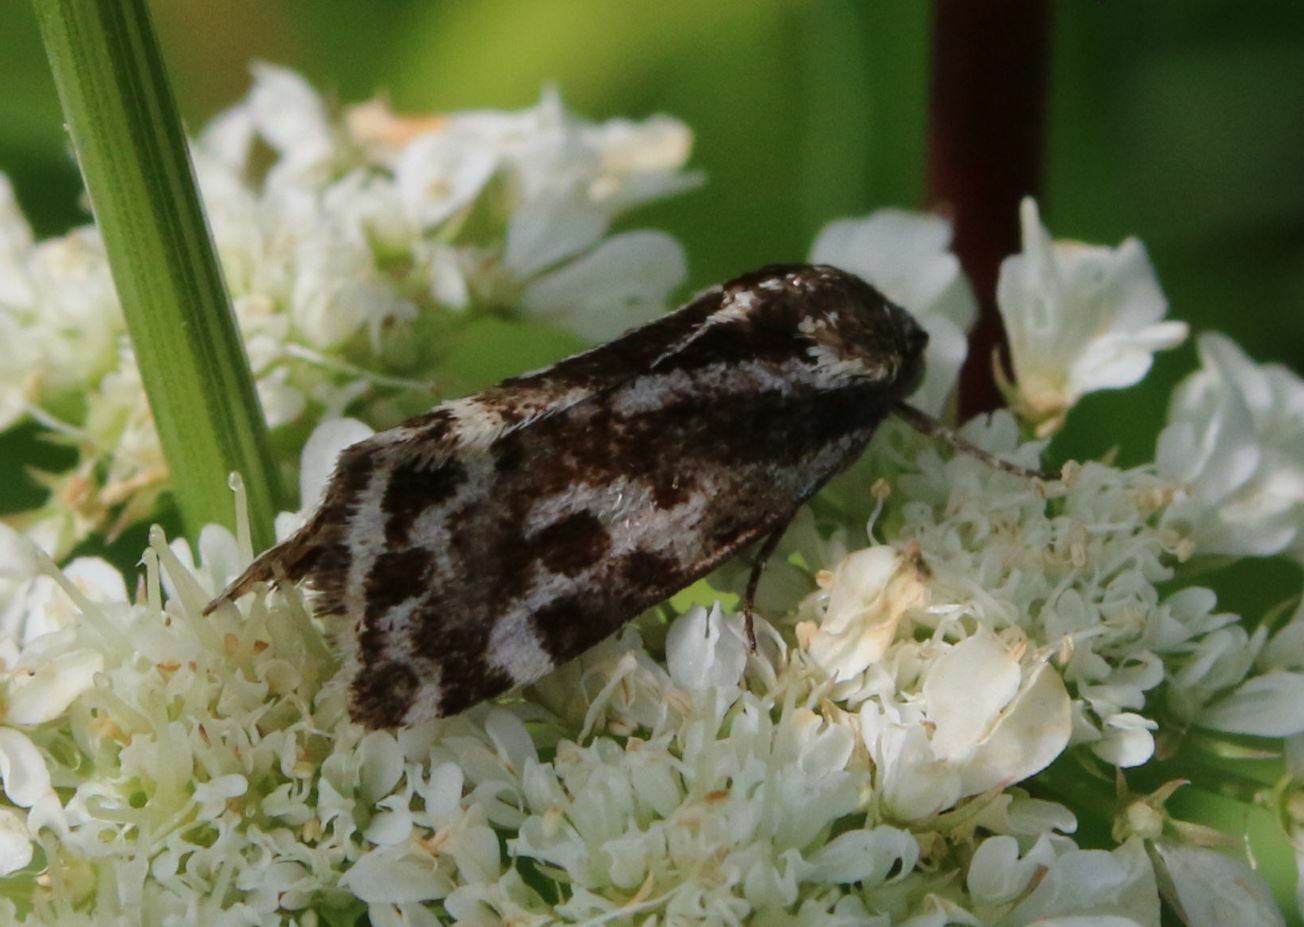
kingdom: Animalia
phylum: Arthropoda
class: Insecta
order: Lepidoptera
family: Noctuidae
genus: Acontia
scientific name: Acontia trabealis
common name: Spotted sulphur
